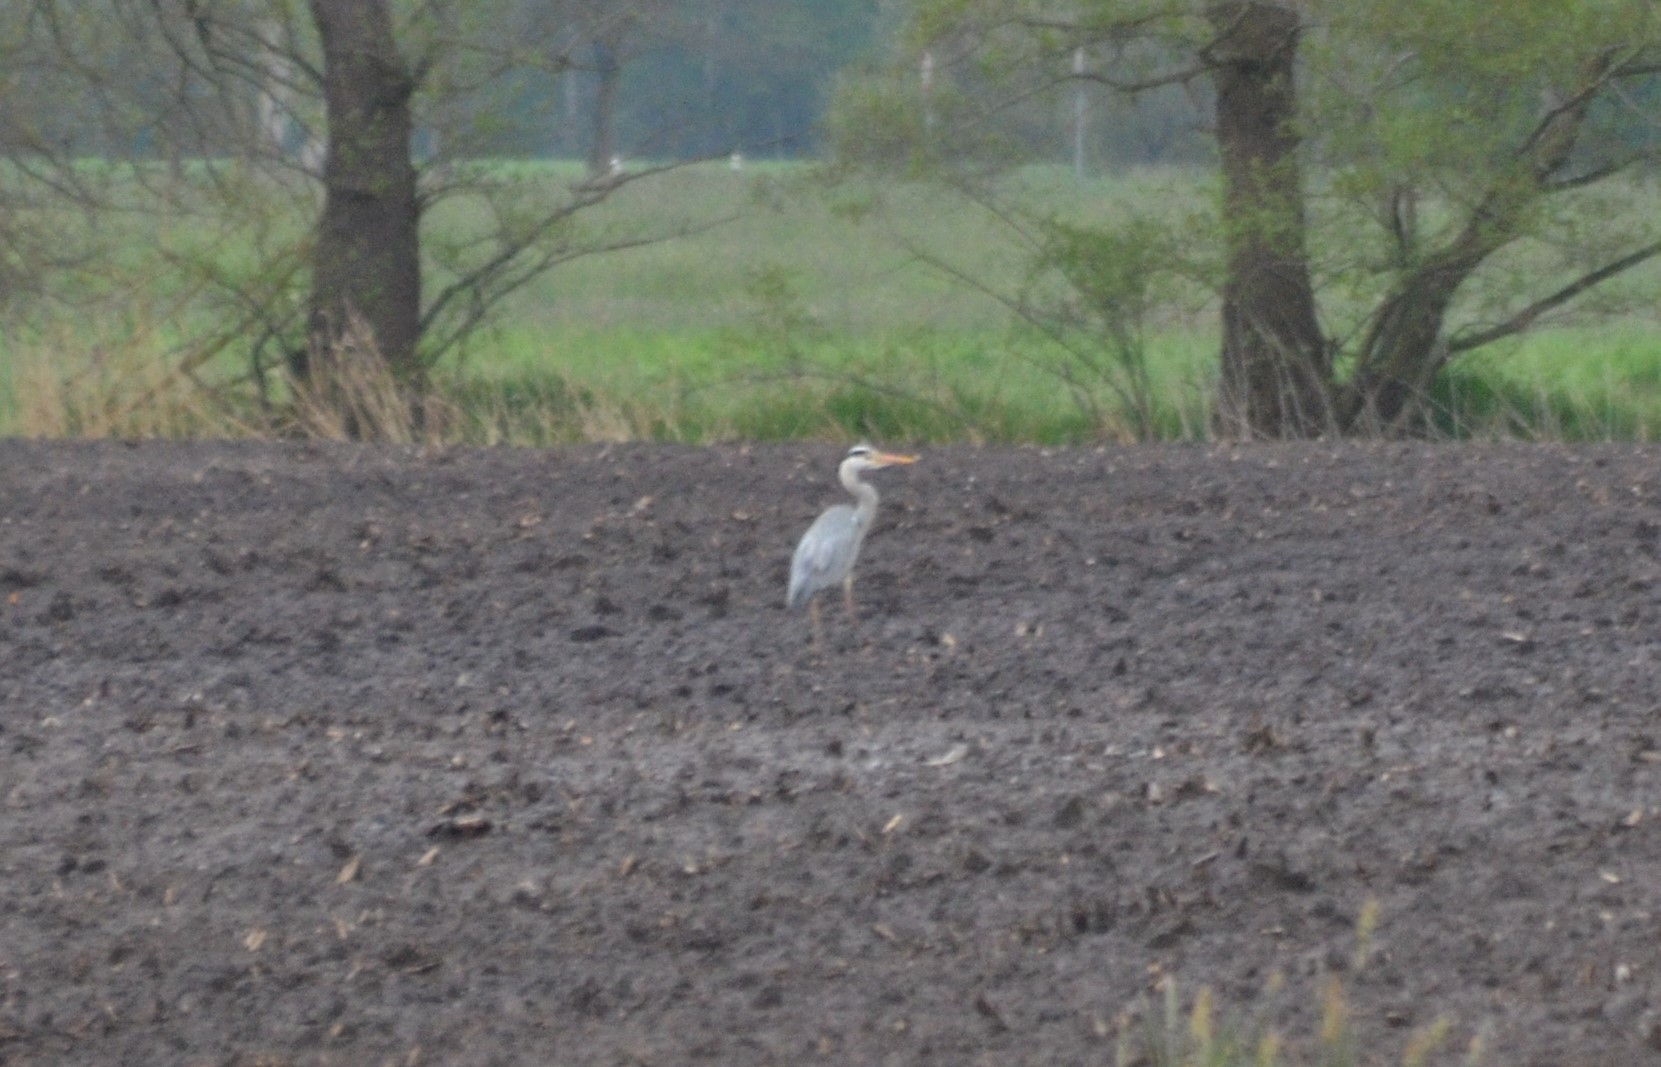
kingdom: Animalia
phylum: Chordata
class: Aves
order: Pelecaniformes
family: Ardeidae
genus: Ardea
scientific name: Ardea cinerea
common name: Grey heron
